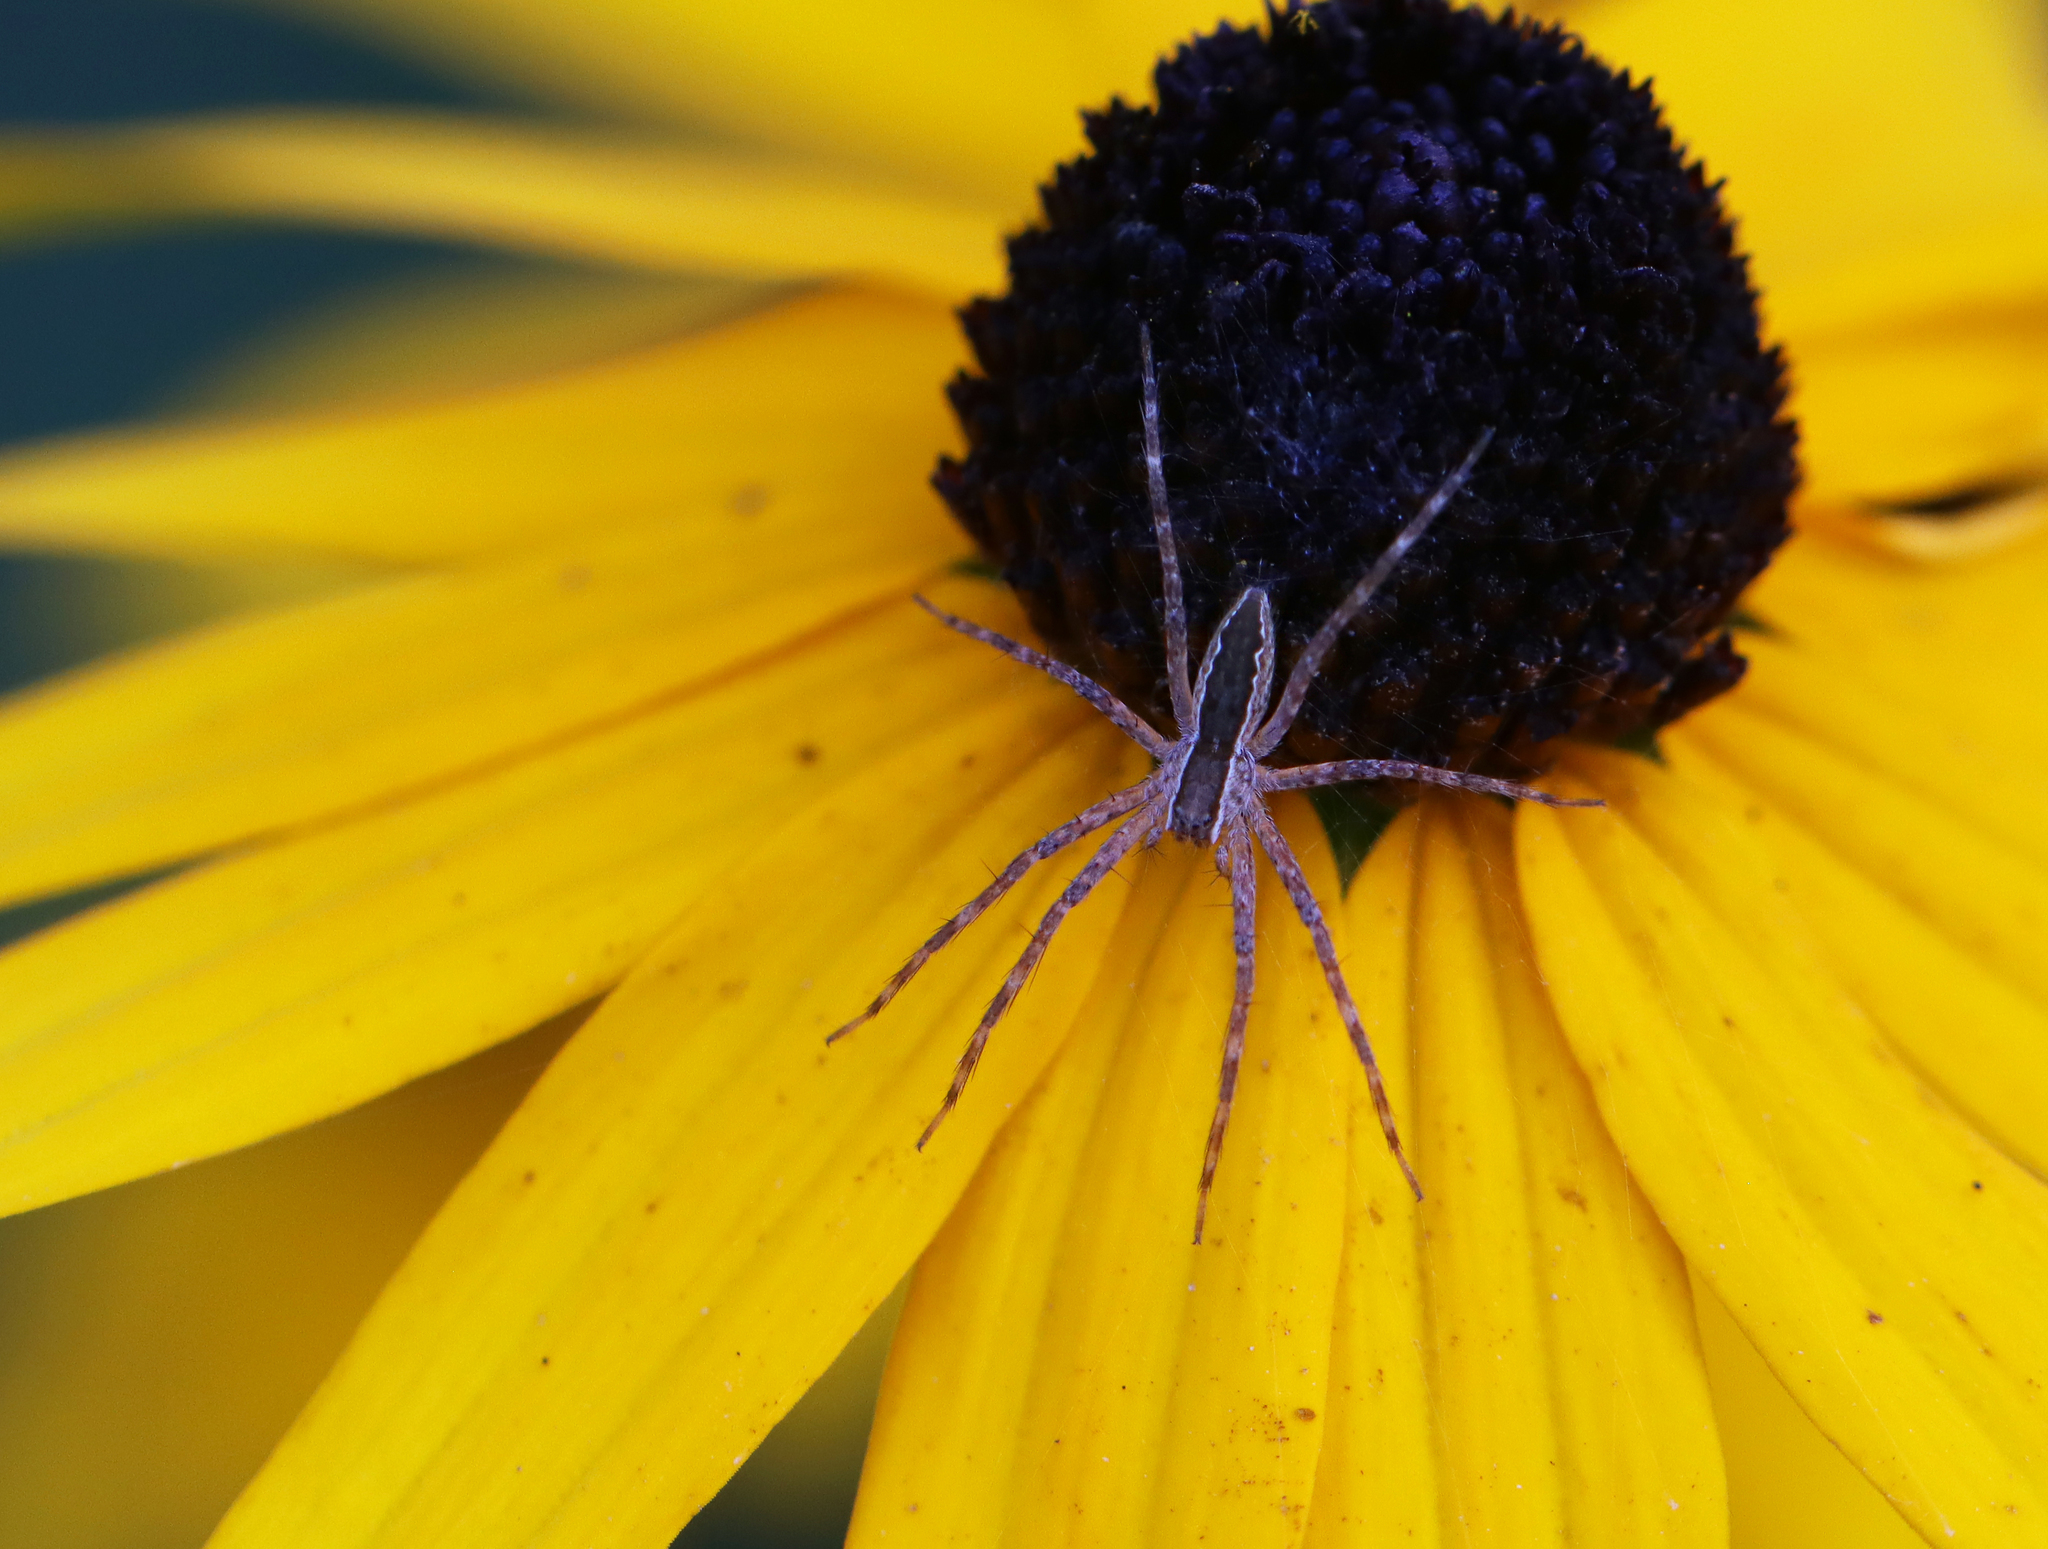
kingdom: Animalia
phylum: Arthropoda
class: Arachnida
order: Araneae
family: Pisauridae
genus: Pisaurina
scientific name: Pisaurina mira
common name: American nursery web spider
